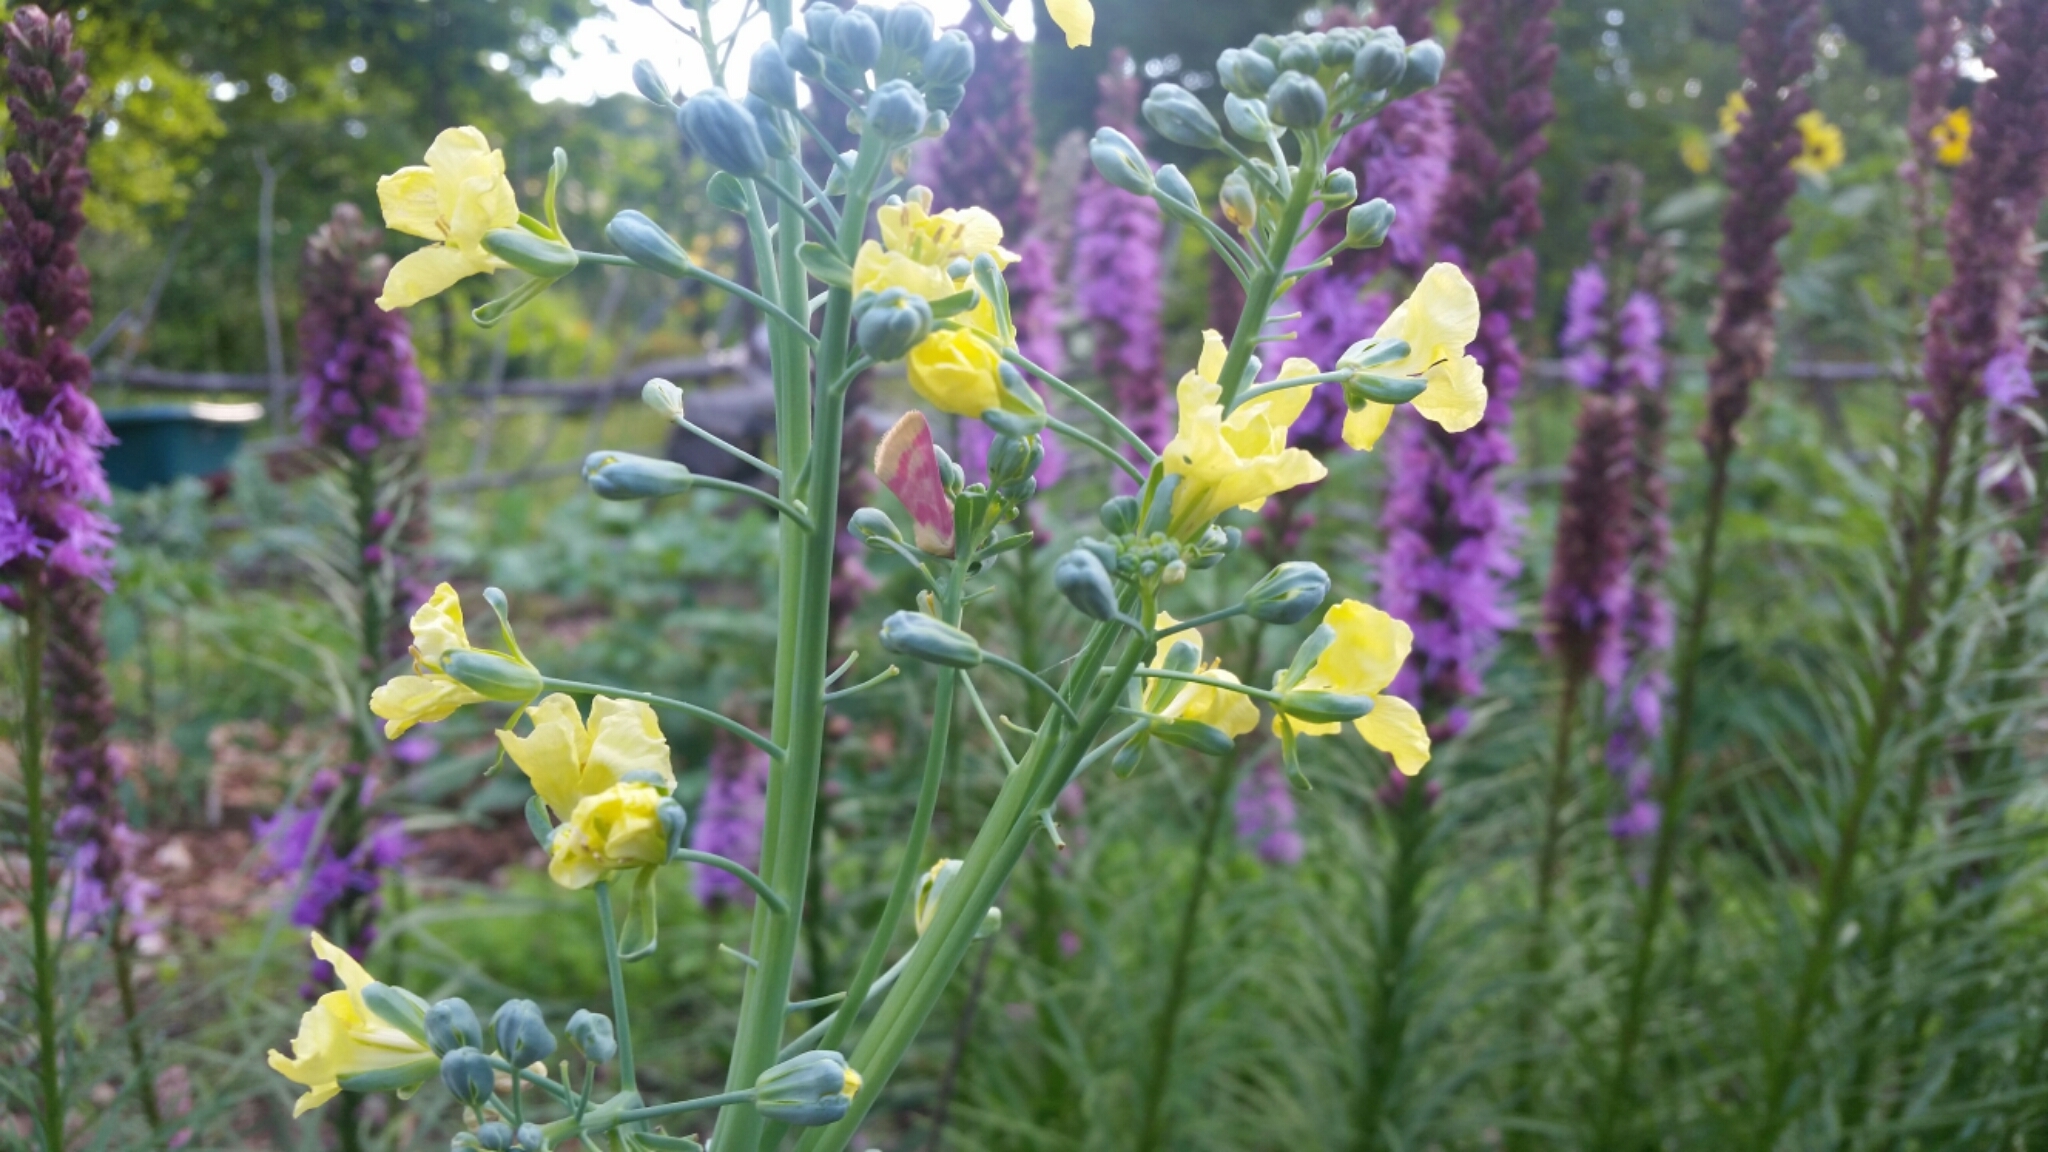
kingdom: Animalia
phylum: Arthropoda
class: Insecta
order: Lepidoptera
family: Noctuidae
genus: Schinia
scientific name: Schinia florida
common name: Primrose moth
